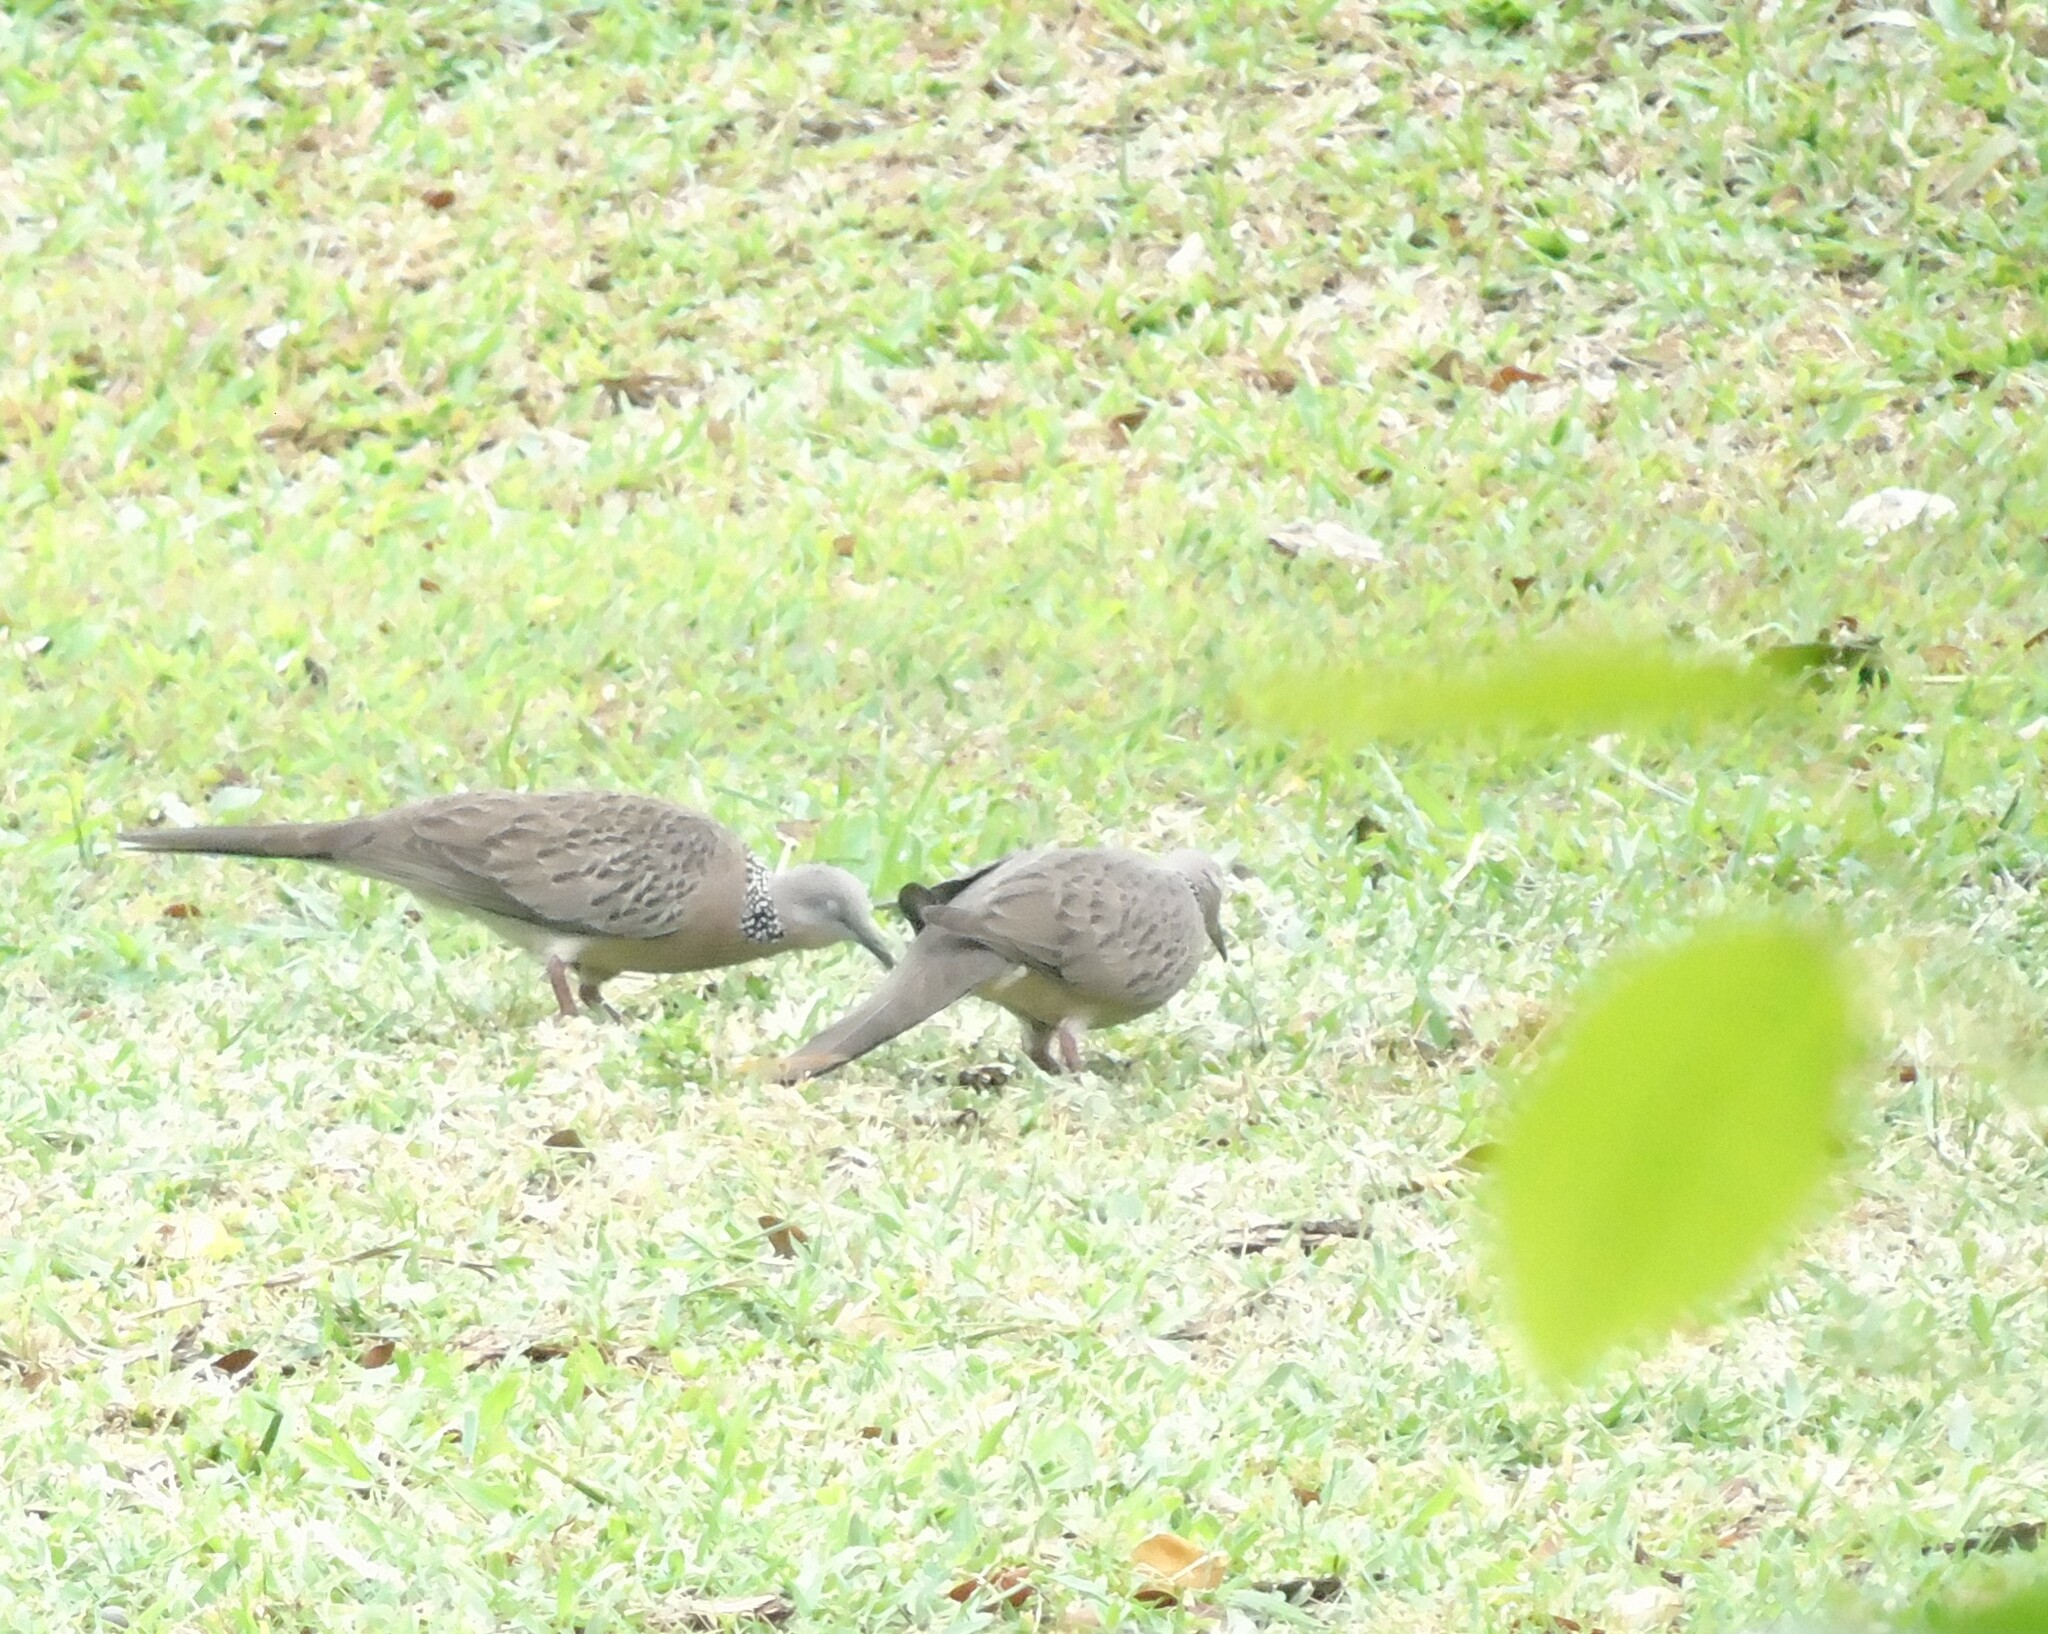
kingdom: Animalia
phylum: Chordata
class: Aves
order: Columbiformes
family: Columbidae
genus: Spilopelia
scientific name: Spilopelia chinensis
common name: Spotted dove
